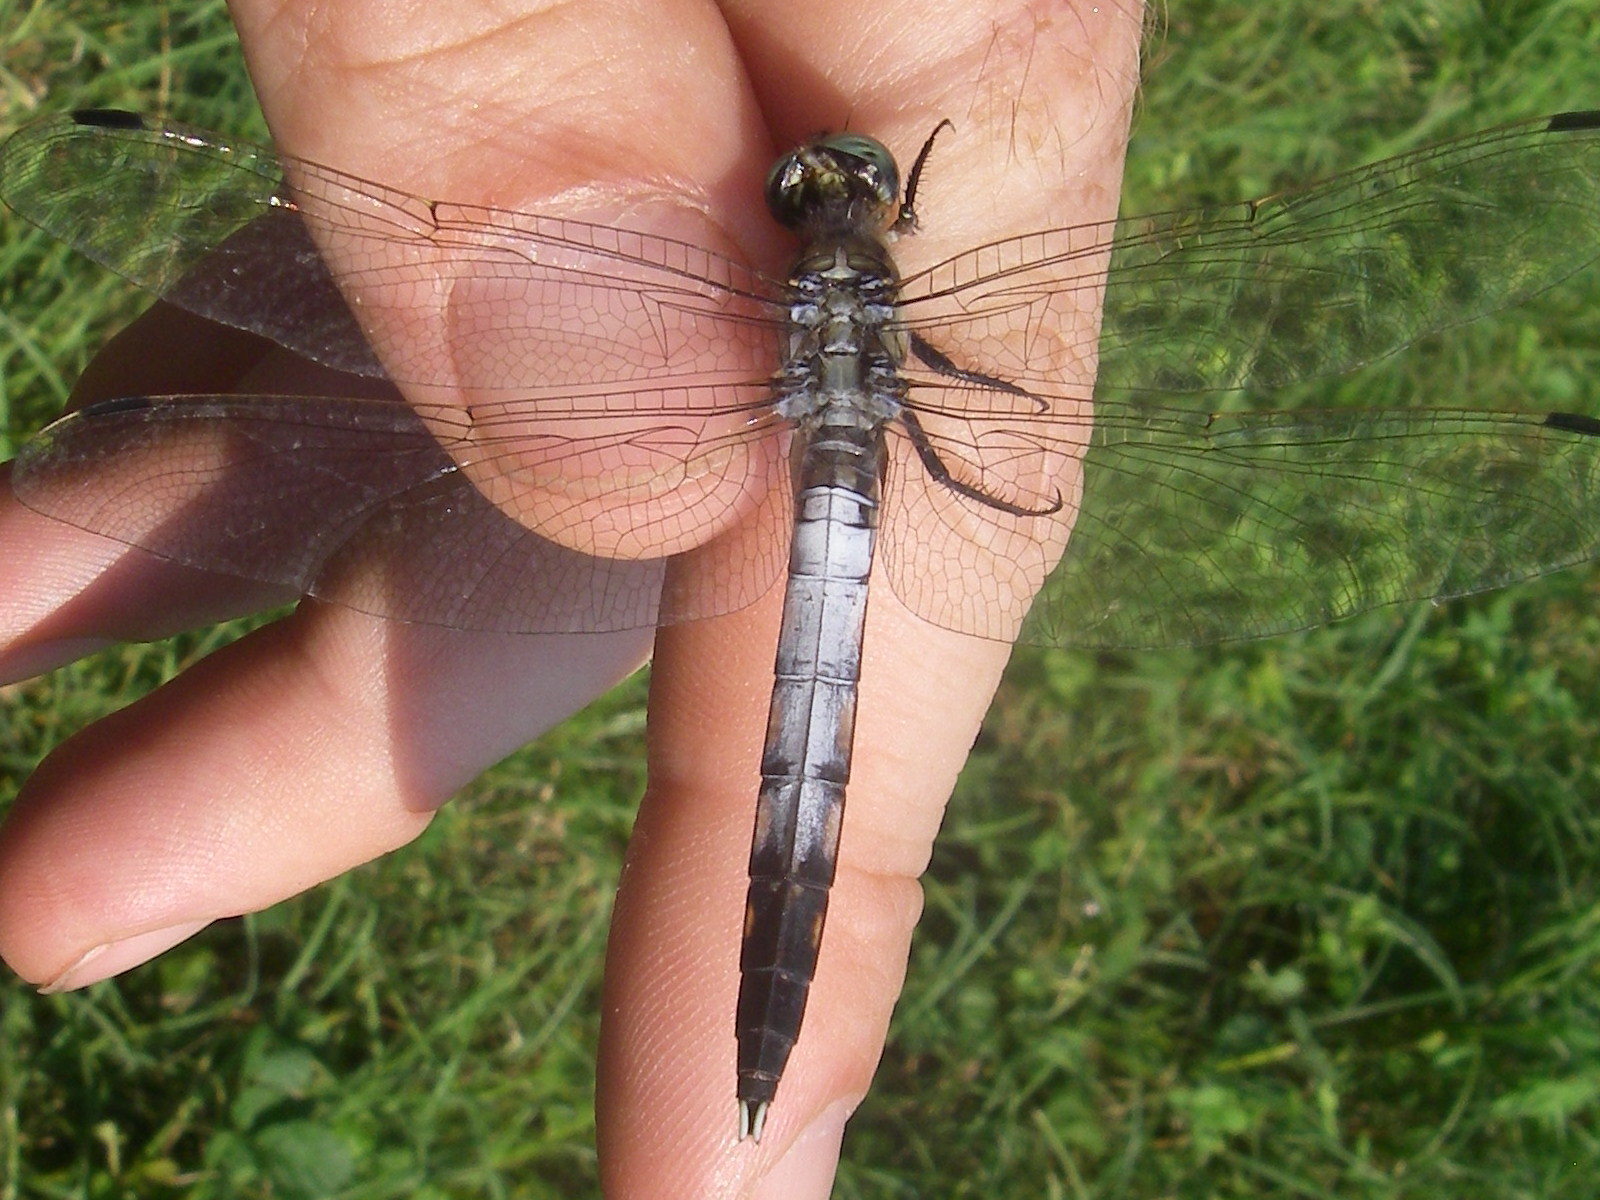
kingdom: Animalia
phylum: Arthropoda
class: Insecta
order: Odonata
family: Libellulidae
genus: Orthetrum
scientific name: Orthetrum albistylum
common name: White-tailed skimmer
